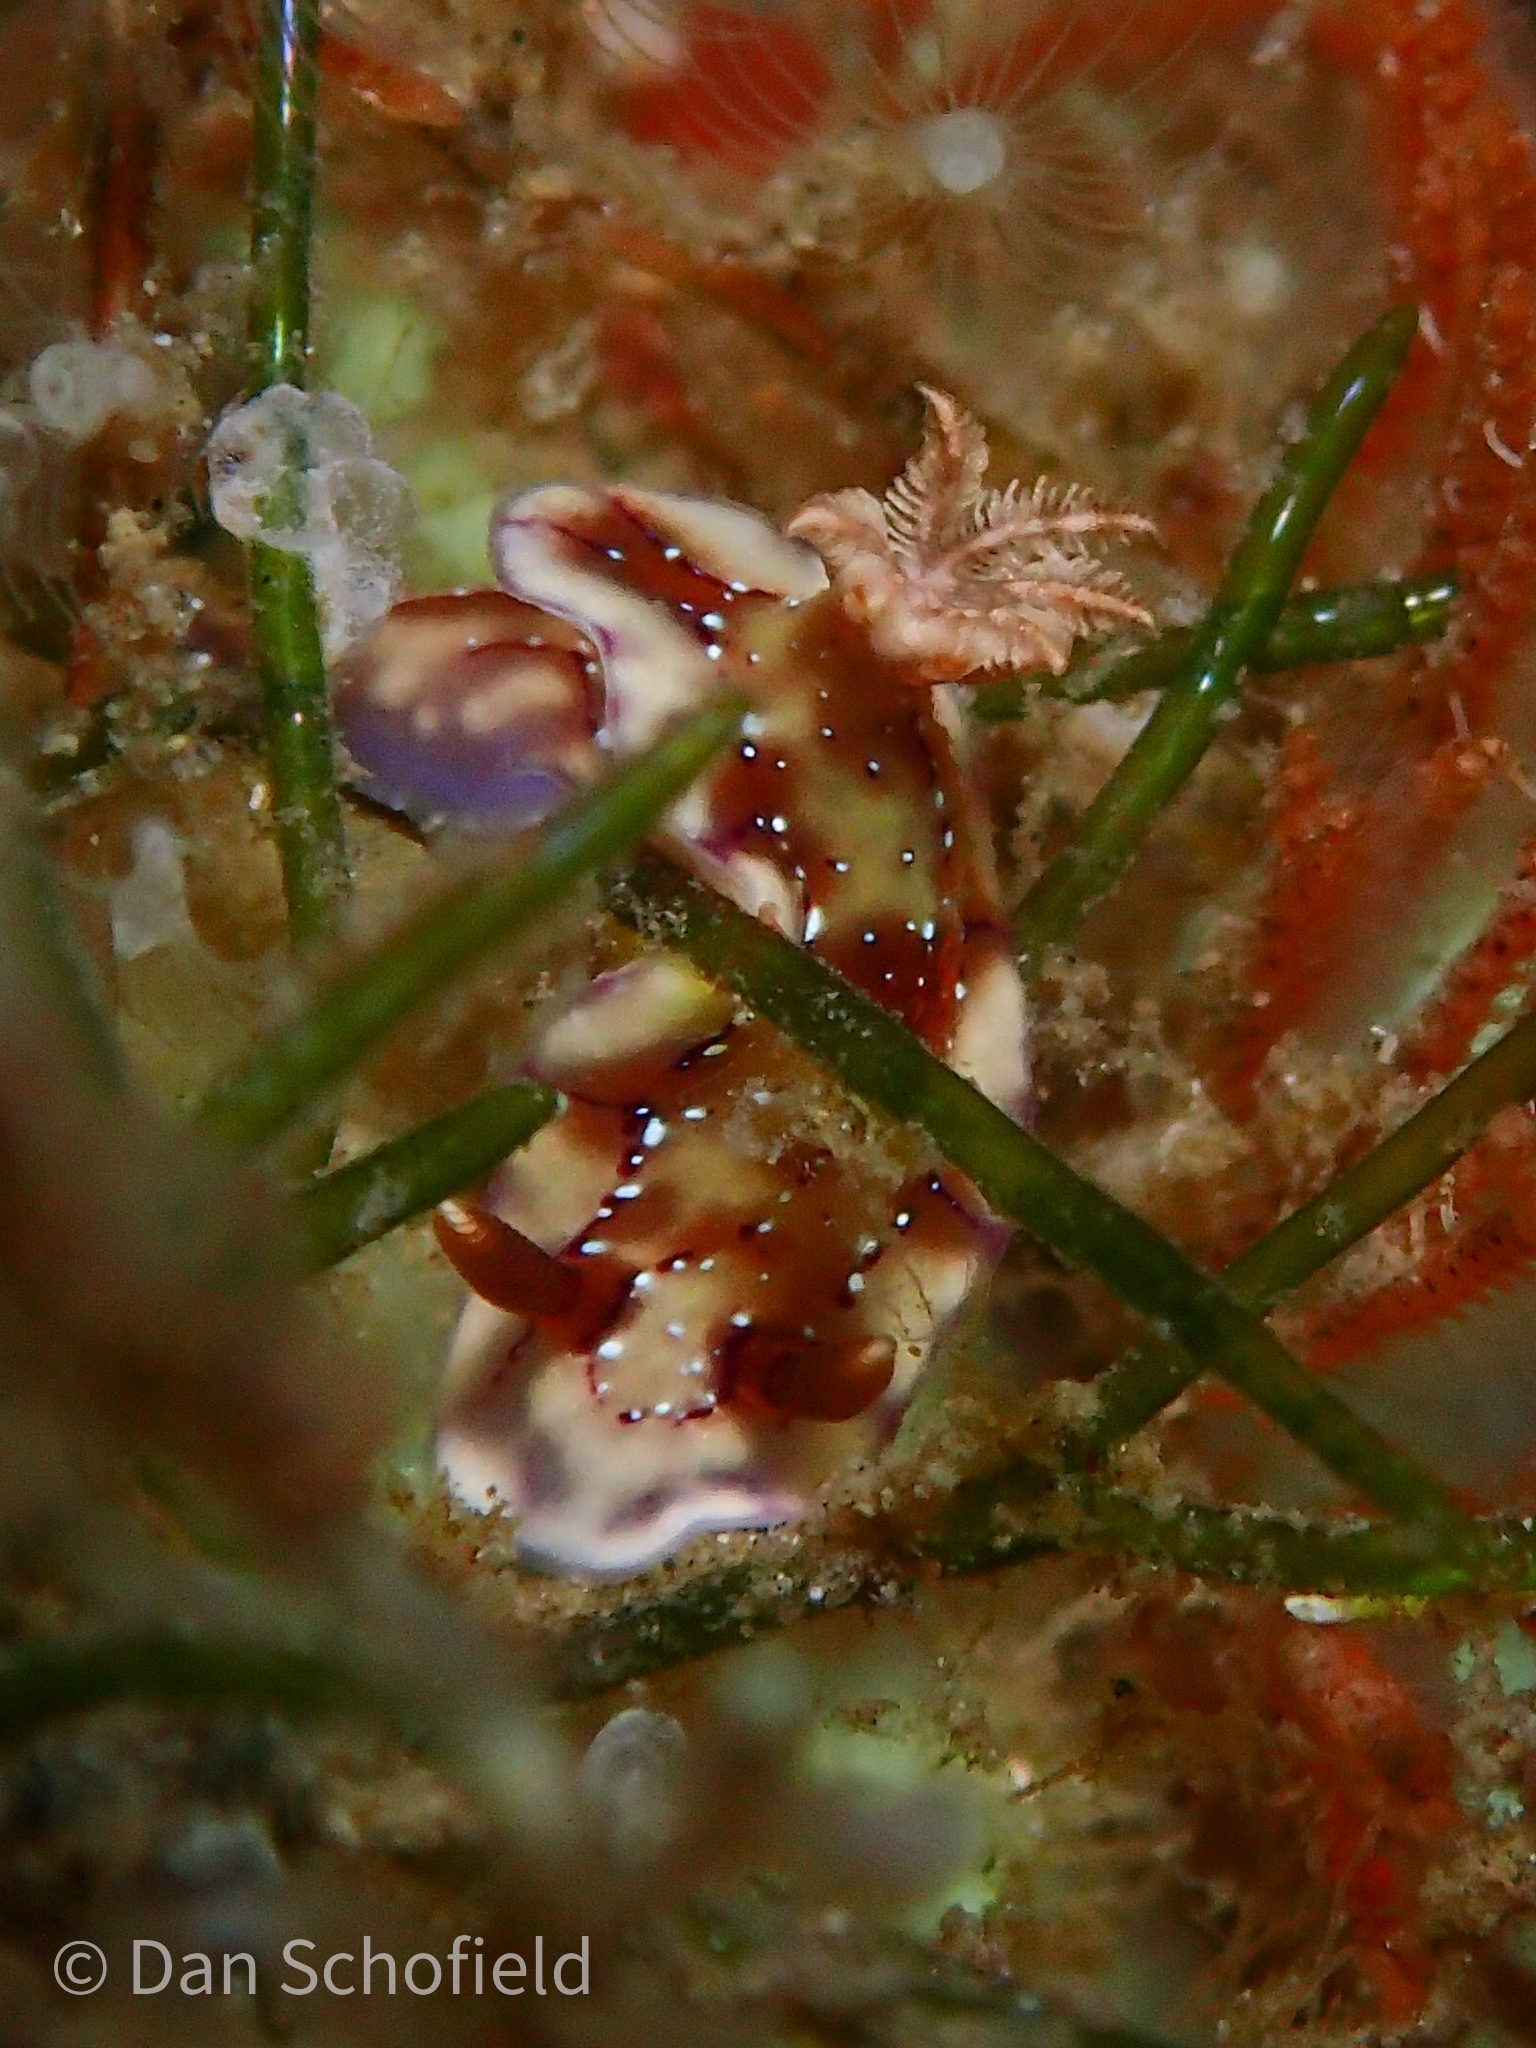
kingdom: Animalia
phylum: Mollusca
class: Gastropoda
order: Nudibranchia
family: Chromodorididae
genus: Hypselodoris
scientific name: Hypselodoris krakatoa
